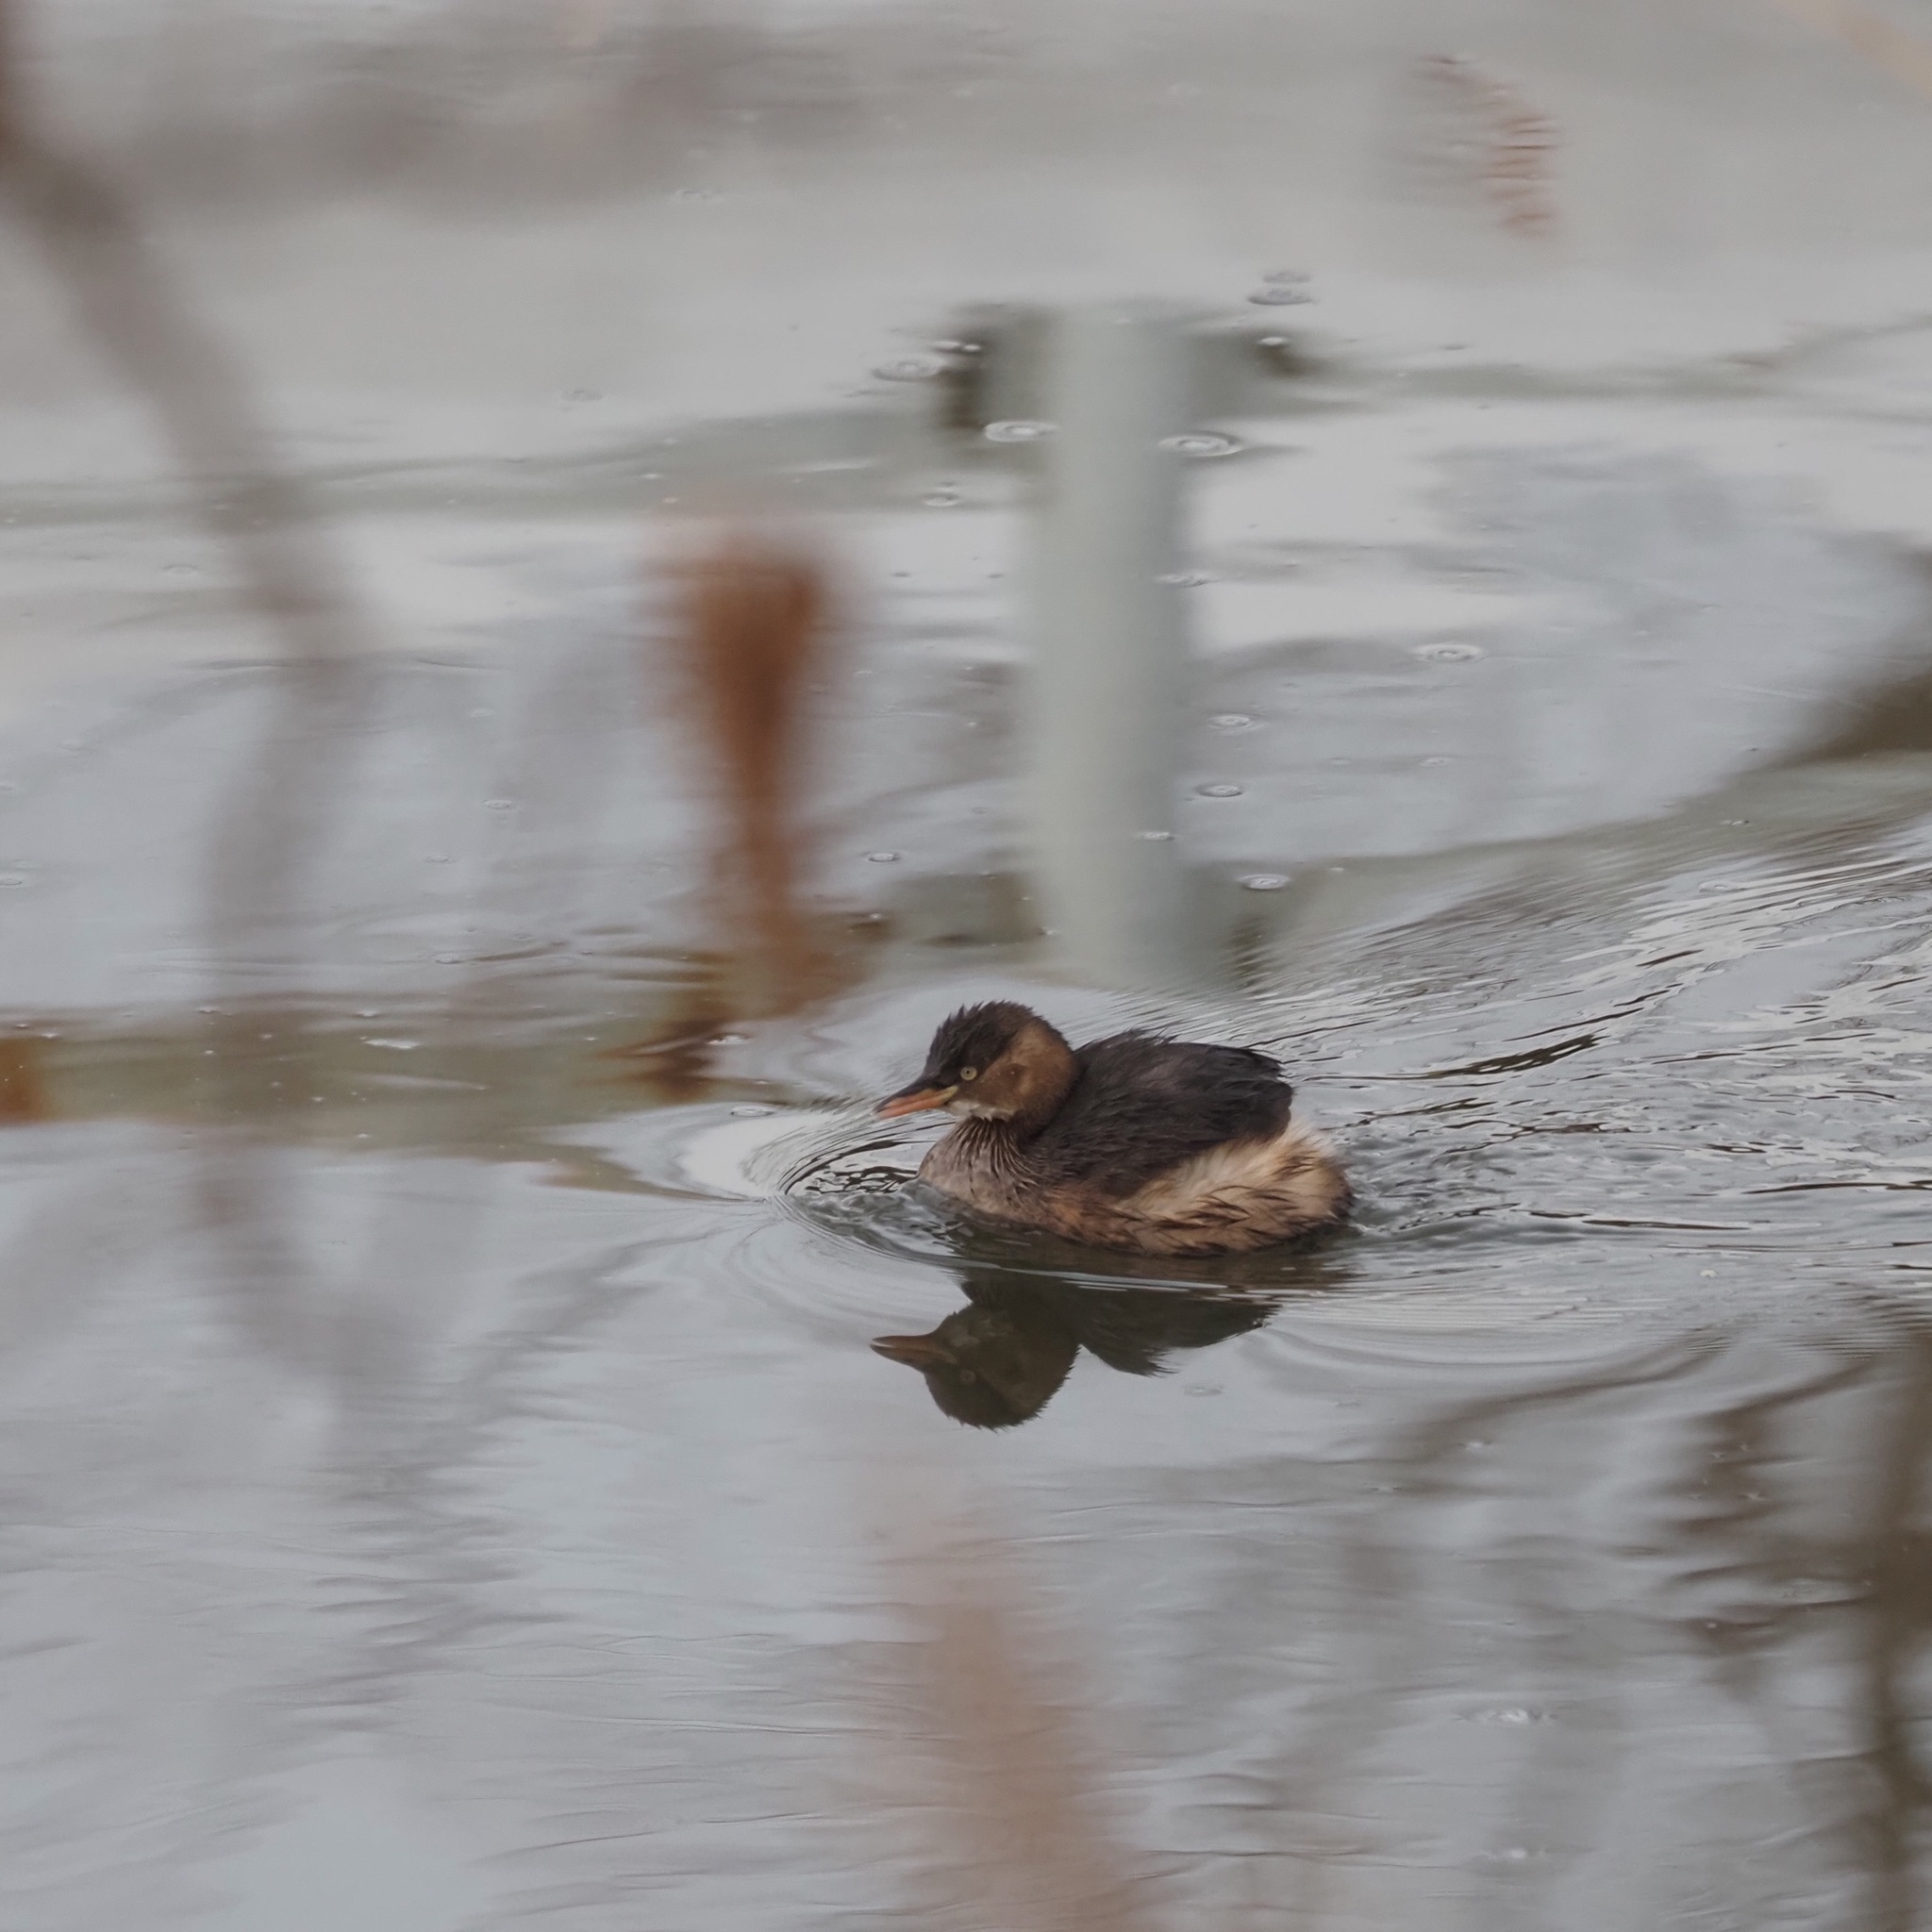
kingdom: Animalia
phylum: Chordata
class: Aves
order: Podicipediformes
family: Podicipedidae
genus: Tachybaptus
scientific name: Tachybaptus ruficollis
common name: Little grebe
